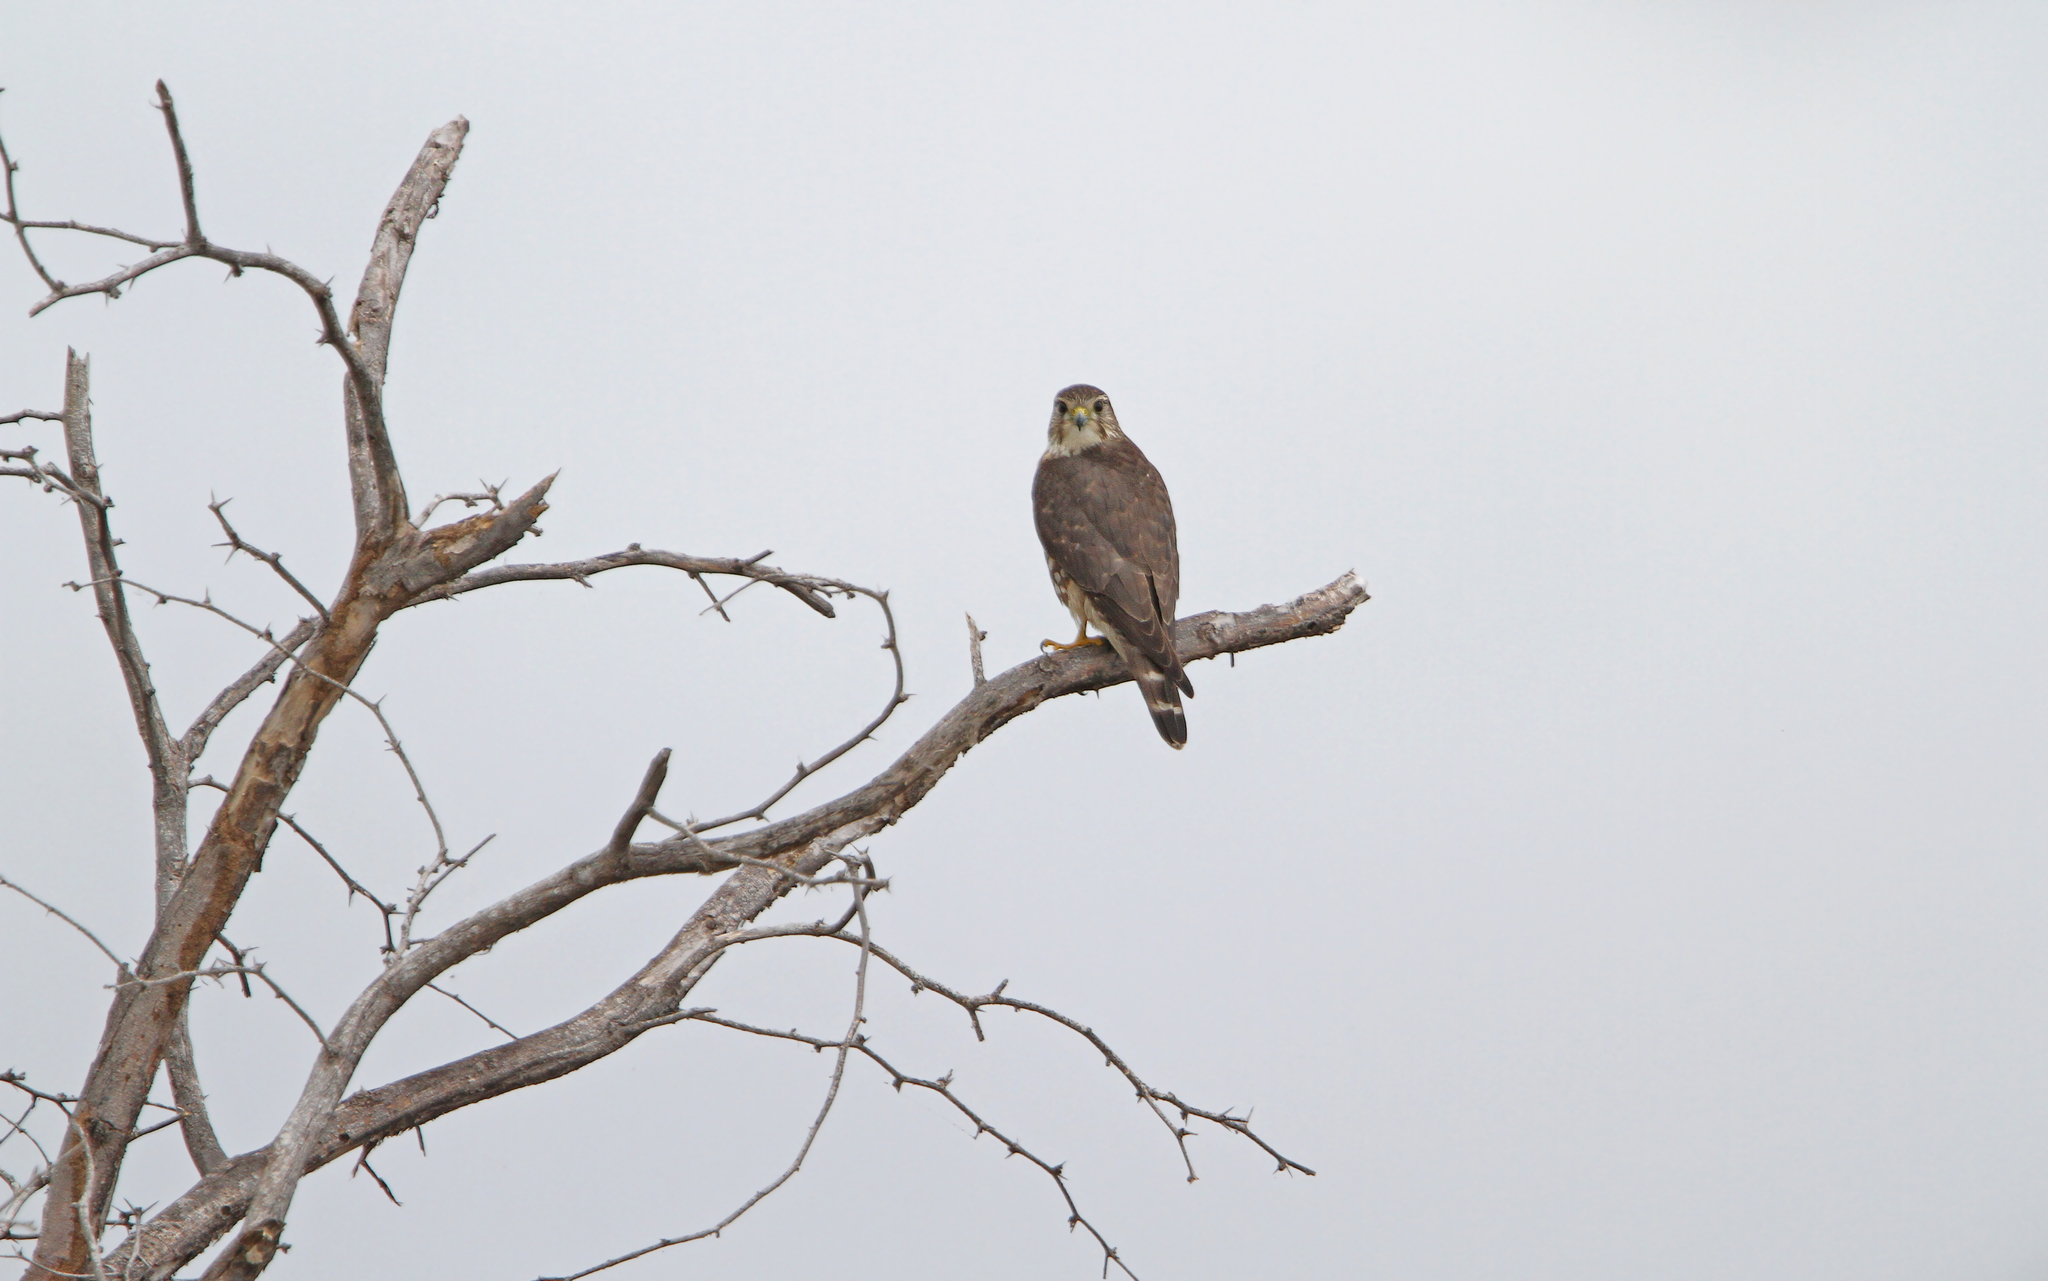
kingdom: Animalia
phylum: Chordata
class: Aves
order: Falconiformes
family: Falconidae
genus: Falco
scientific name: Falco columbarius
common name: Merlin
